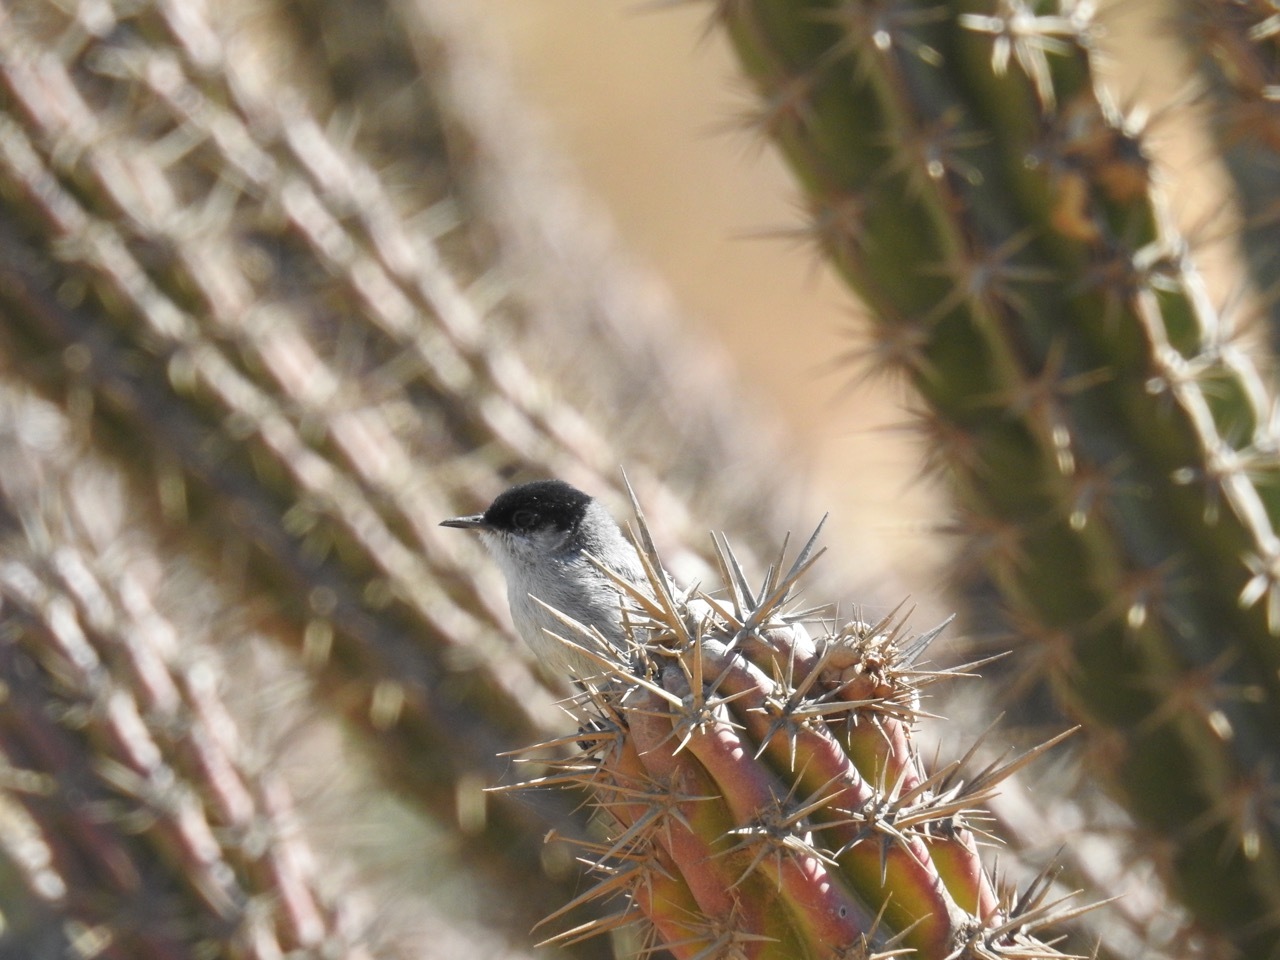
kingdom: Animalia
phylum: Chordata
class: Aves
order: Passeriformes
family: Polioptilidae
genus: Polioptila
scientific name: Polioptila californica
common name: California gnatcatcher
